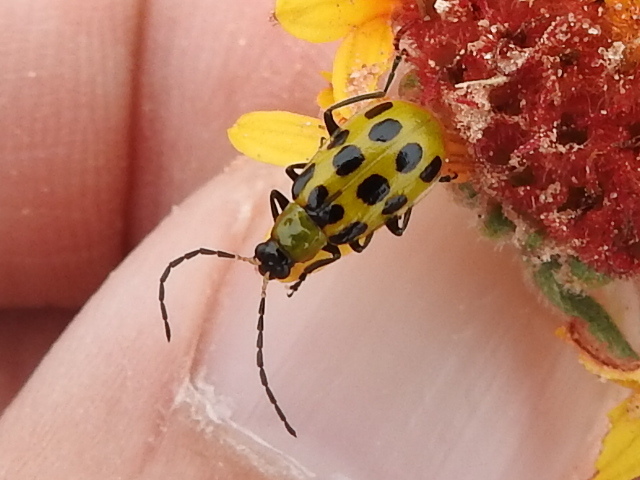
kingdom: Animalia
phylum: Arthropoda
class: Insecta
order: Coleoptera
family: Chrysomelidae
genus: Diabrotica
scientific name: Diabrotica undecimpunctata
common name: Spotted cucumber beetle
